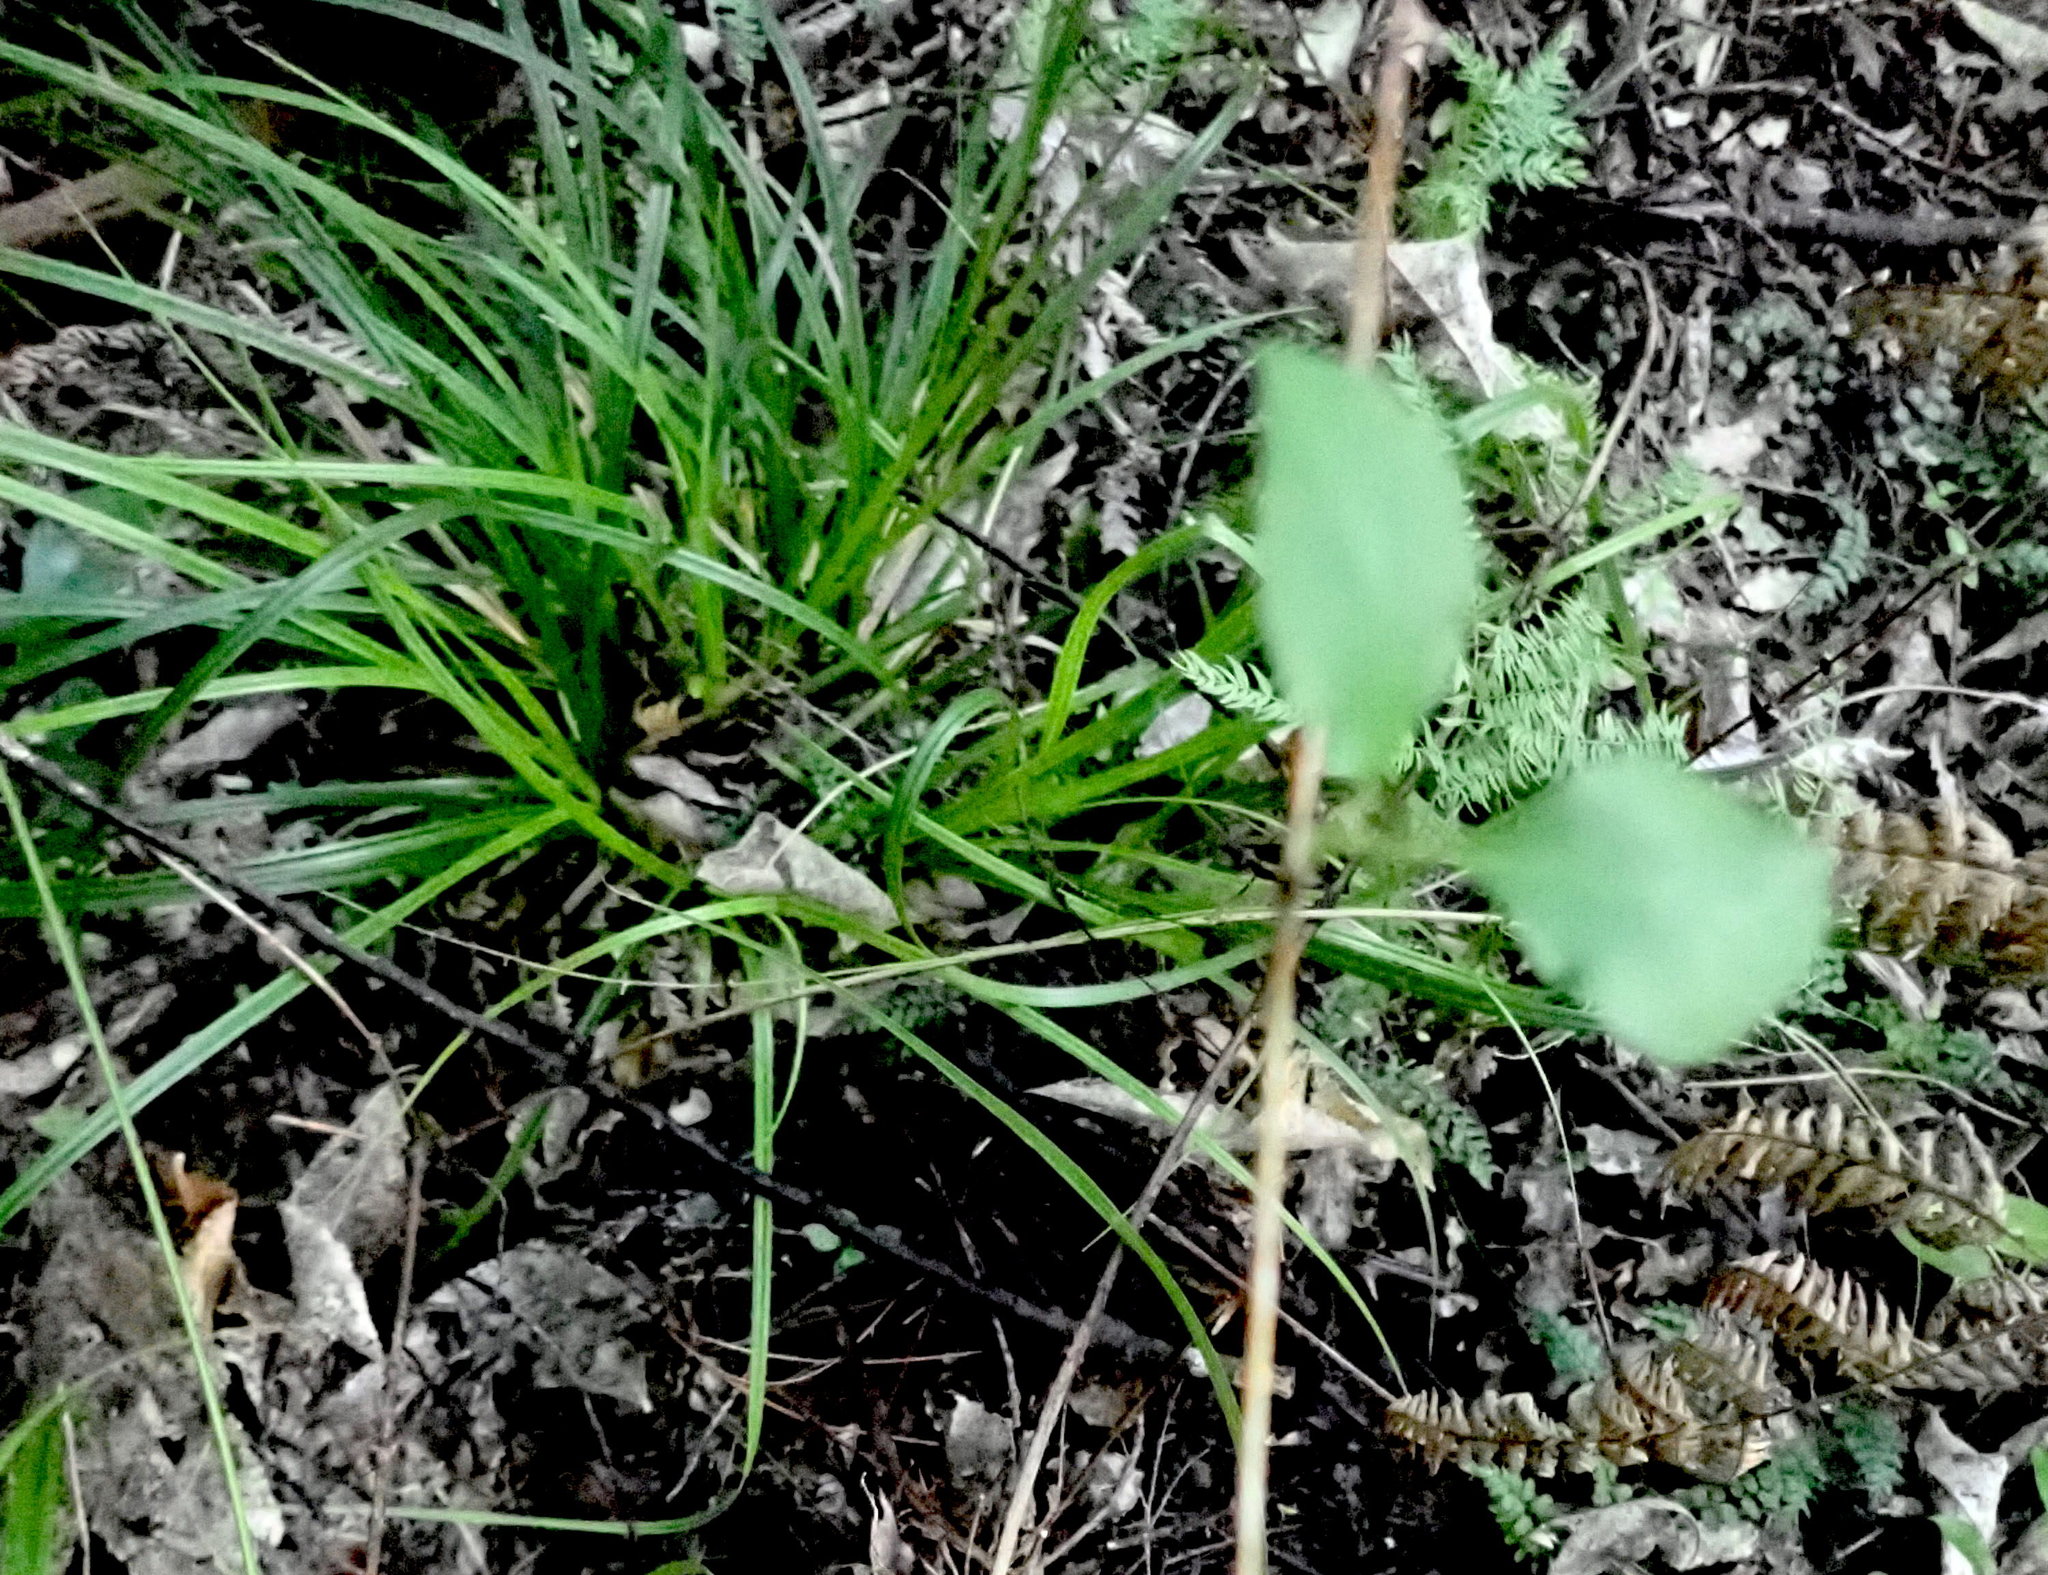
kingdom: Plantae
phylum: Tracheophyta
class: Liliopsida
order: Asparagales
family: Asparagaceae
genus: Asparagus
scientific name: Asparagus scandens
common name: Asparagus-fern
